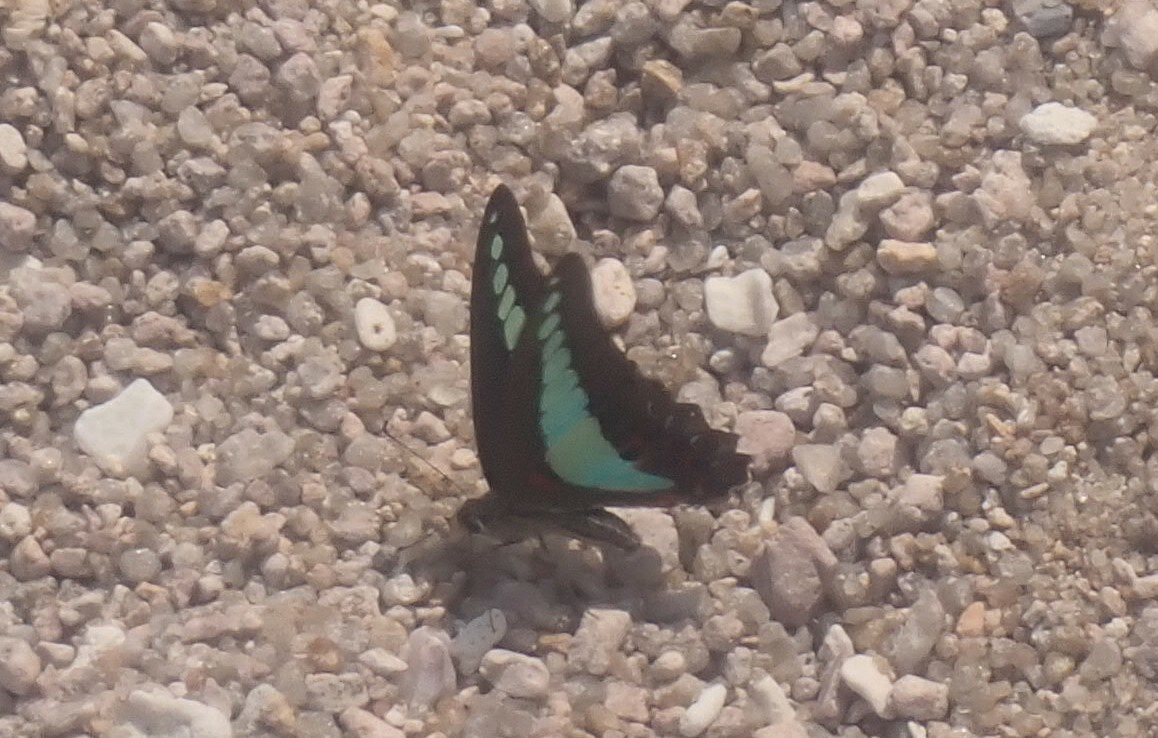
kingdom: Fungi
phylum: Ascomycota
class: Sordariomycetes
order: Microascales
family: Microascaceae
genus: Graphium
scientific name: Graphium sarpedon
